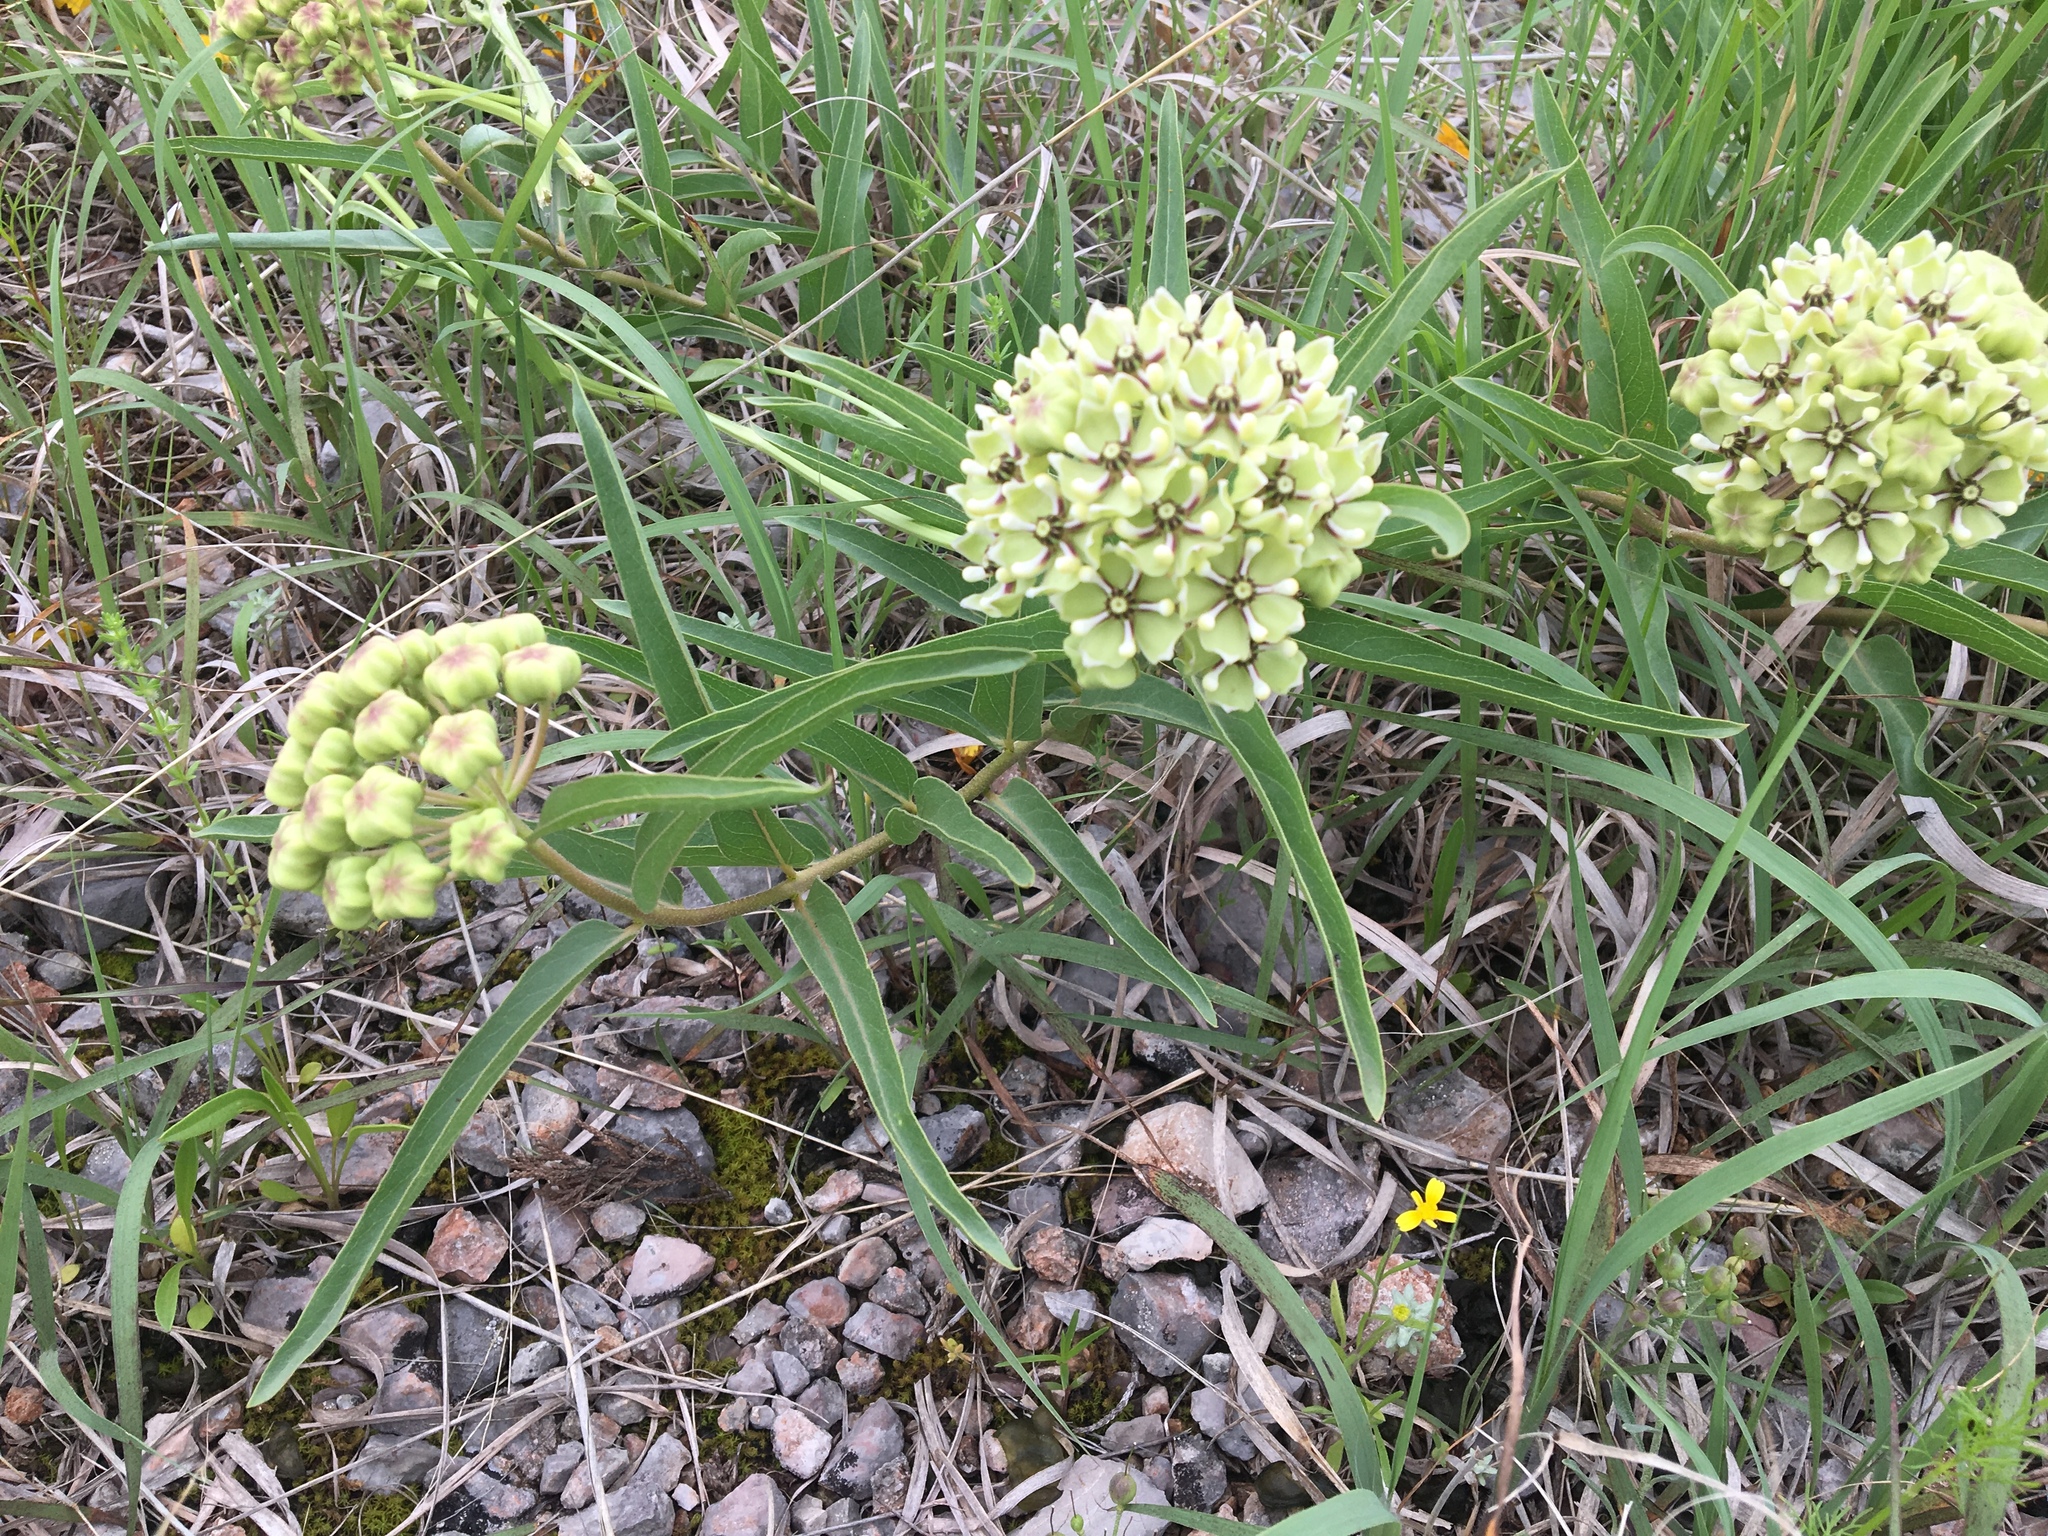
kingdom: Plantae
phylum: Tracheophyta
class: Magnoliopsida
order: Gentianales
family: Apocynaceae
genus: Asclepias
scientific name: Asclepias asperula
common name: Antelope horns
